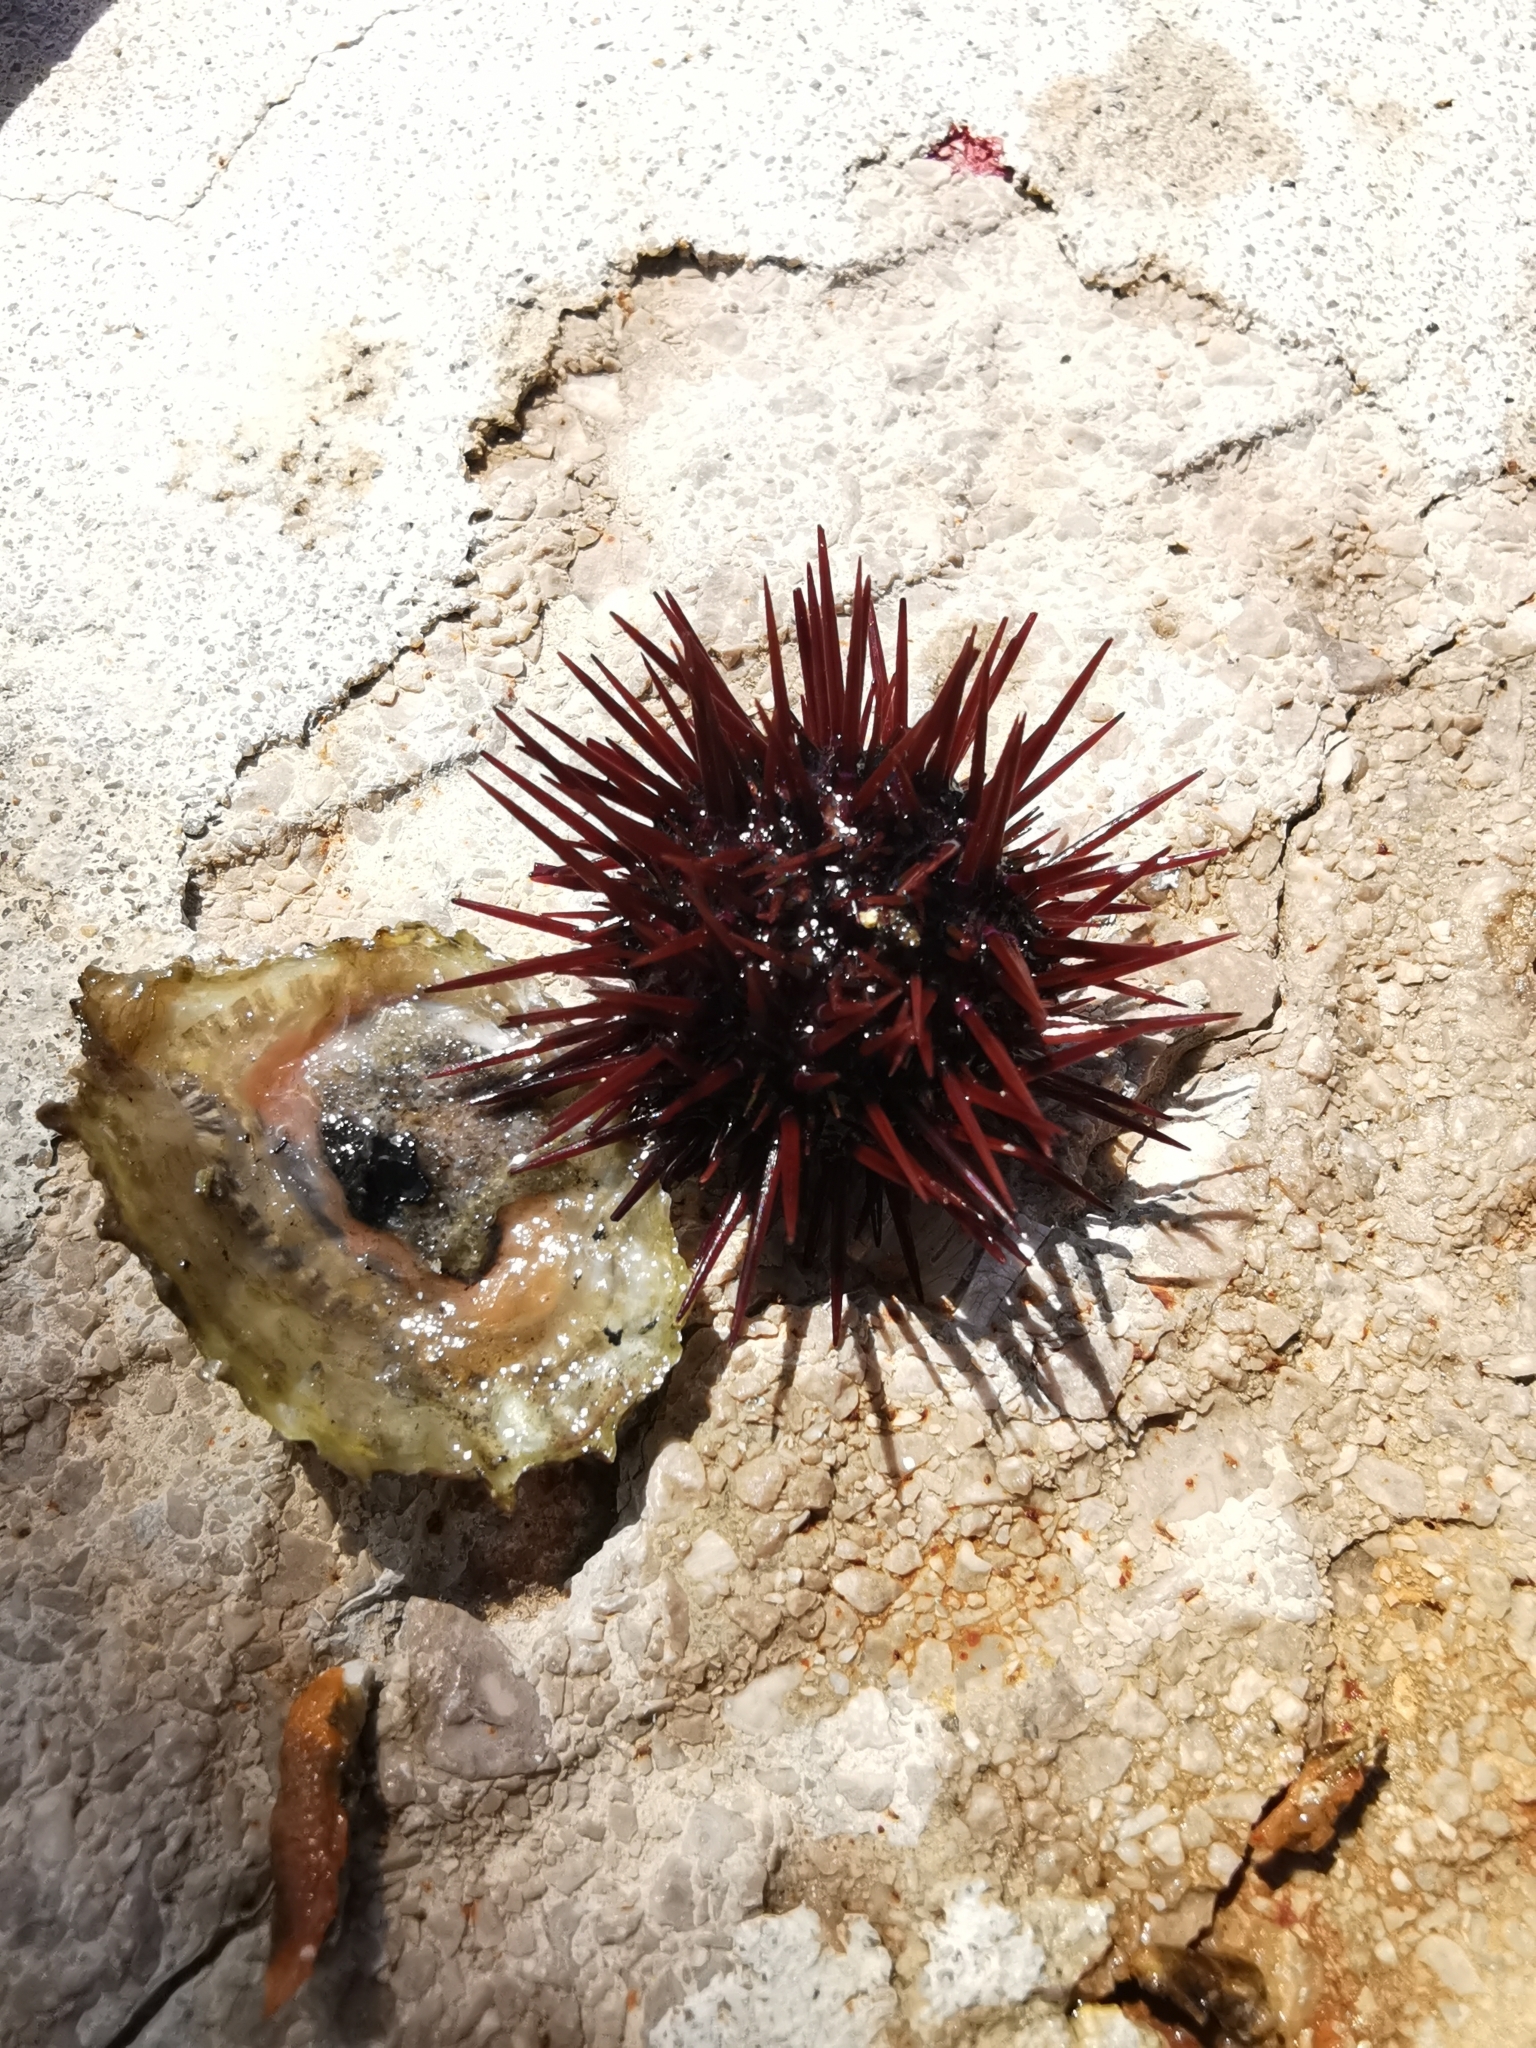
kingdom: Animalia
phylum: Echinodermata
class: Echinoidea
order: Camarodonta
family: Parechinidae
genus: Paracentrotus
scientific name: Paracentrotus lividus
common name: Purple sea urchin
